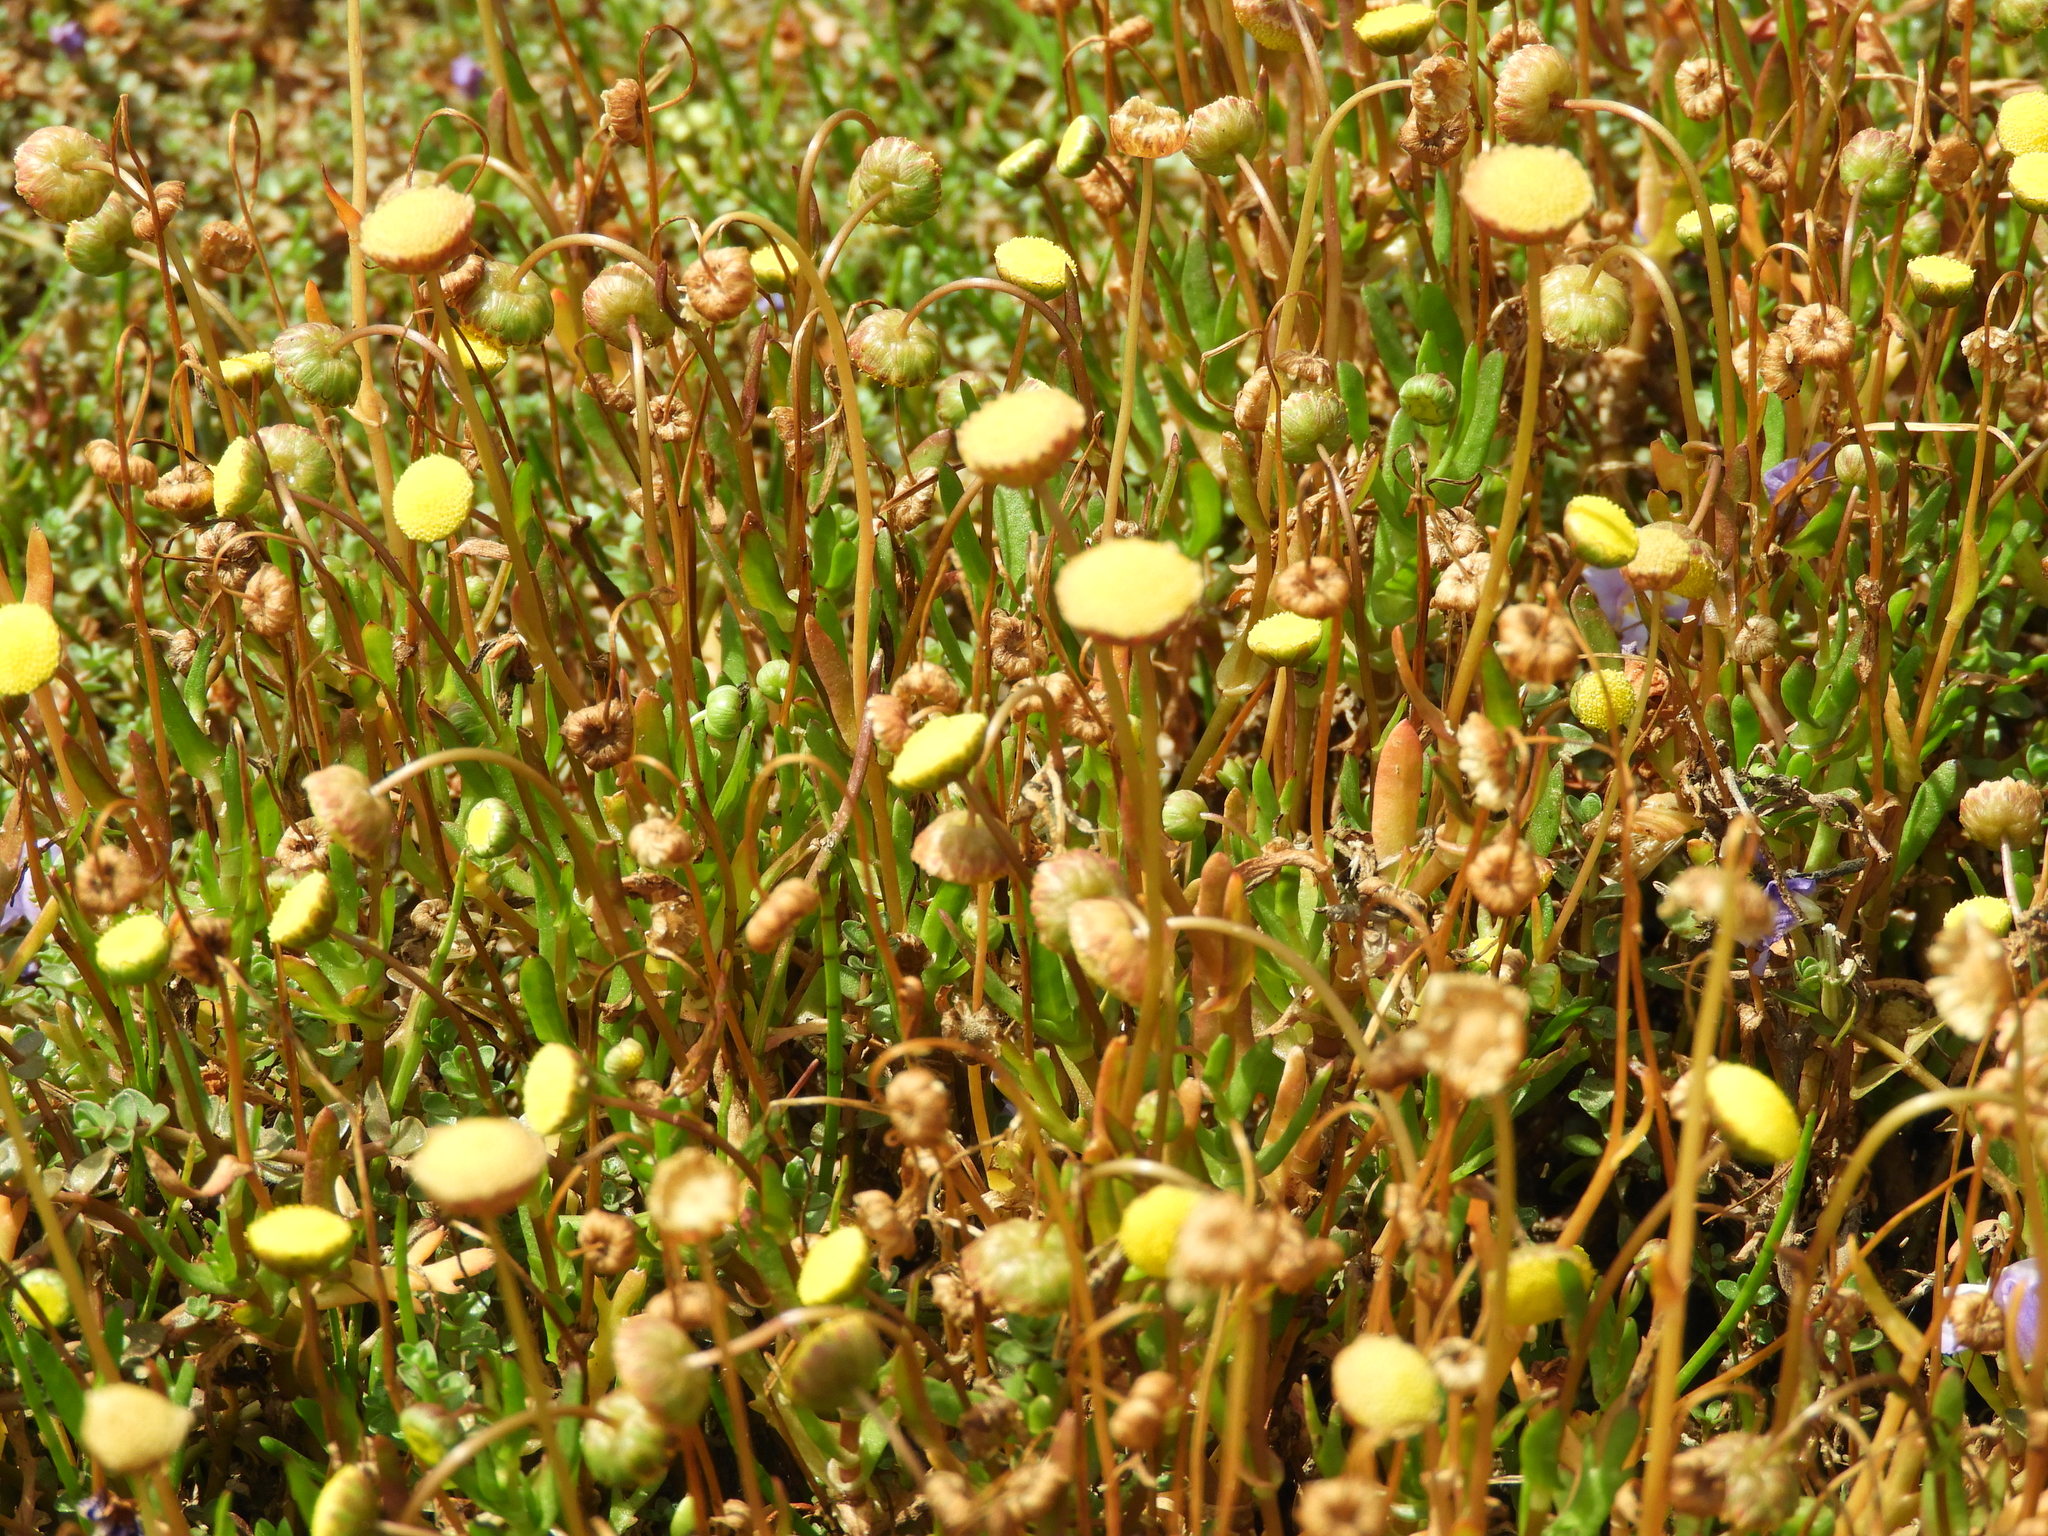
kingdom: Plantae
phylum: Tracheophyta
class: Magnoliopsida
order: Asterales
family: Asteraceae
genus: Cotula
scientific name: Cotula coronopifolia
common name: Buttonweed
